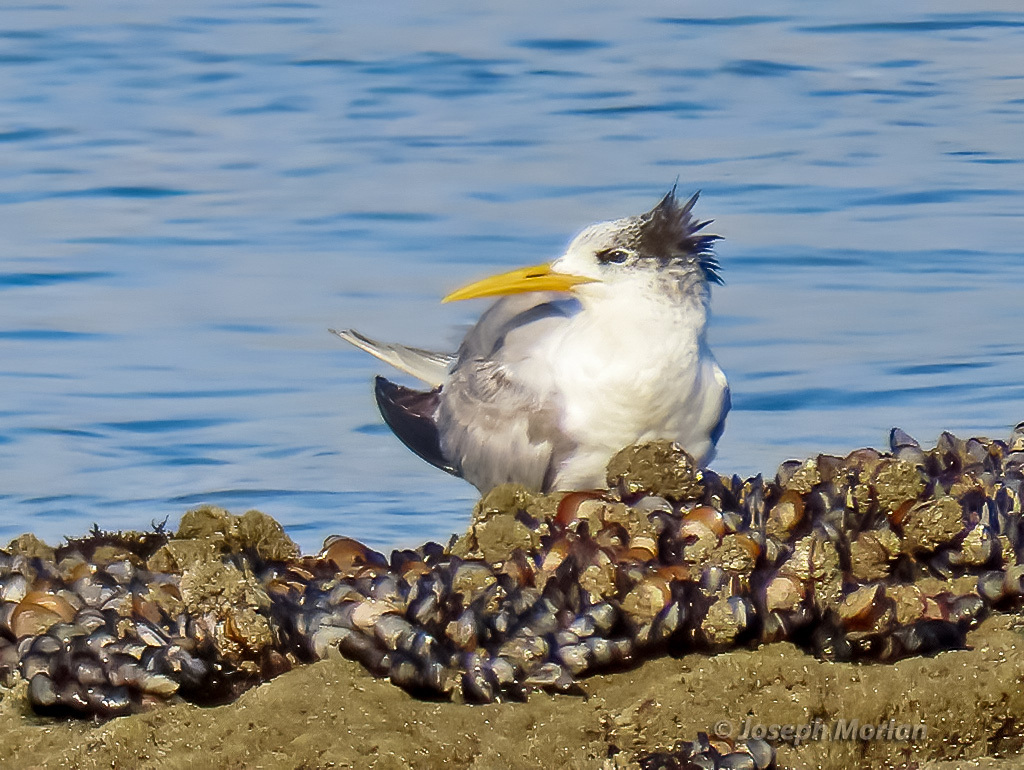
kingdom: Animalia
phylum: Chordata
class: Aves
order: Charadriiformes
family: Laridae
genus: Thalasseus
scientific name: Thalasseus bergii
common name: Greater crested tern
